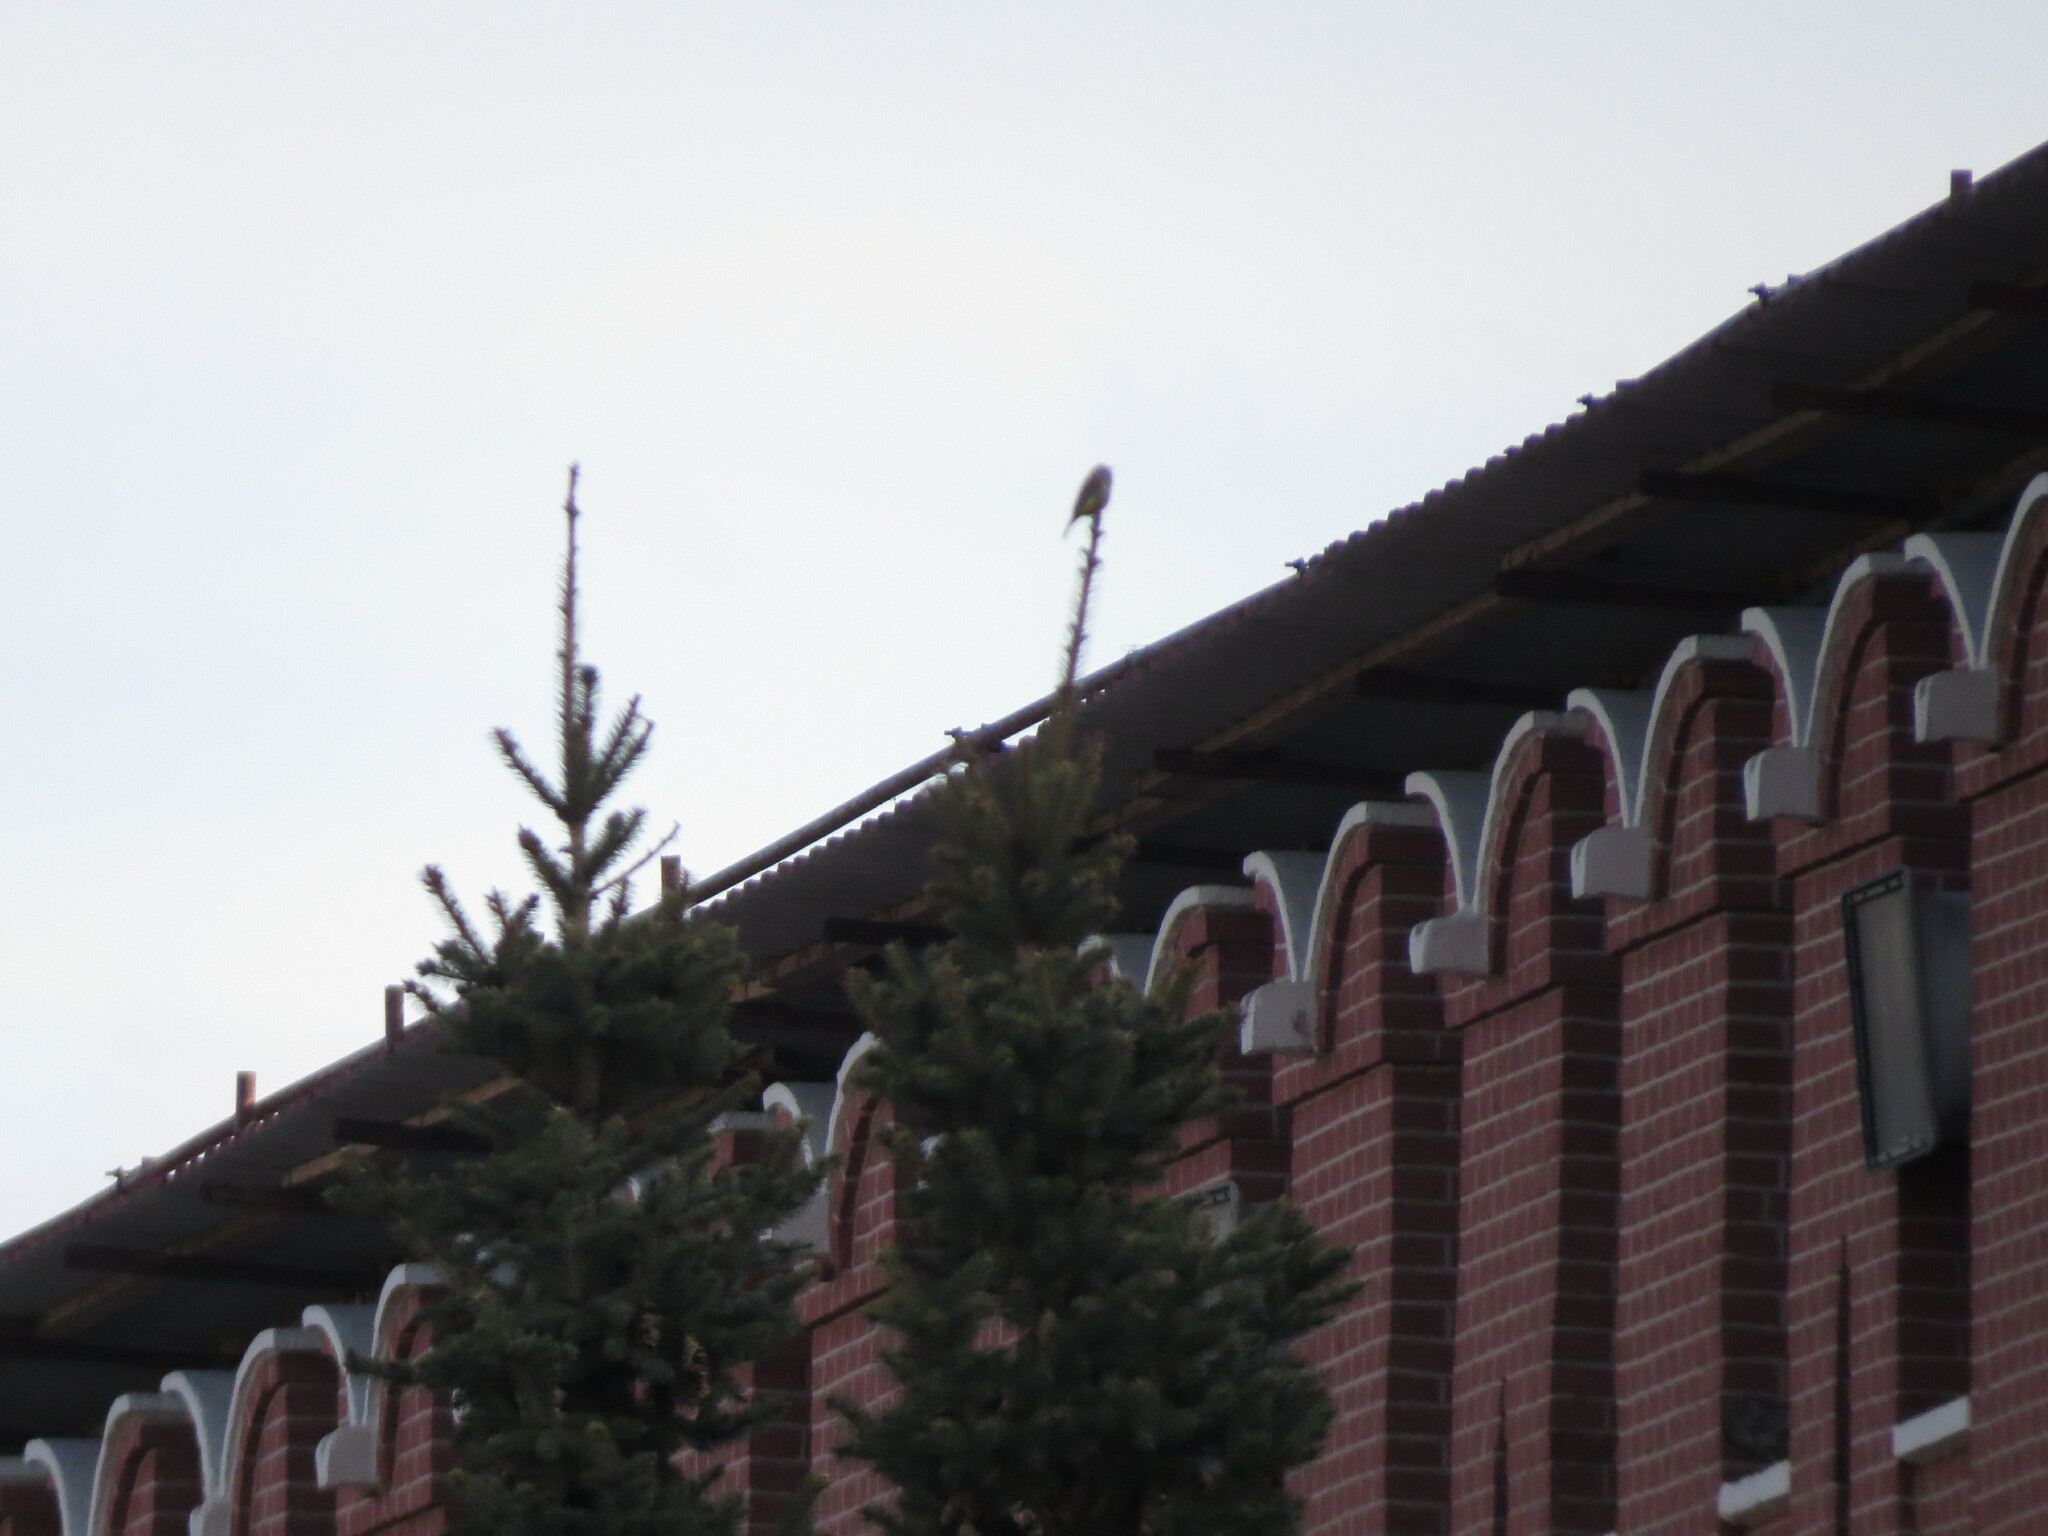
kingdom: Plantae
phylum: Tracheophyta
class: Liliopsida
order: Poales
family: Poaceae
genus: Chloris
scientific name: Chloris chloris
